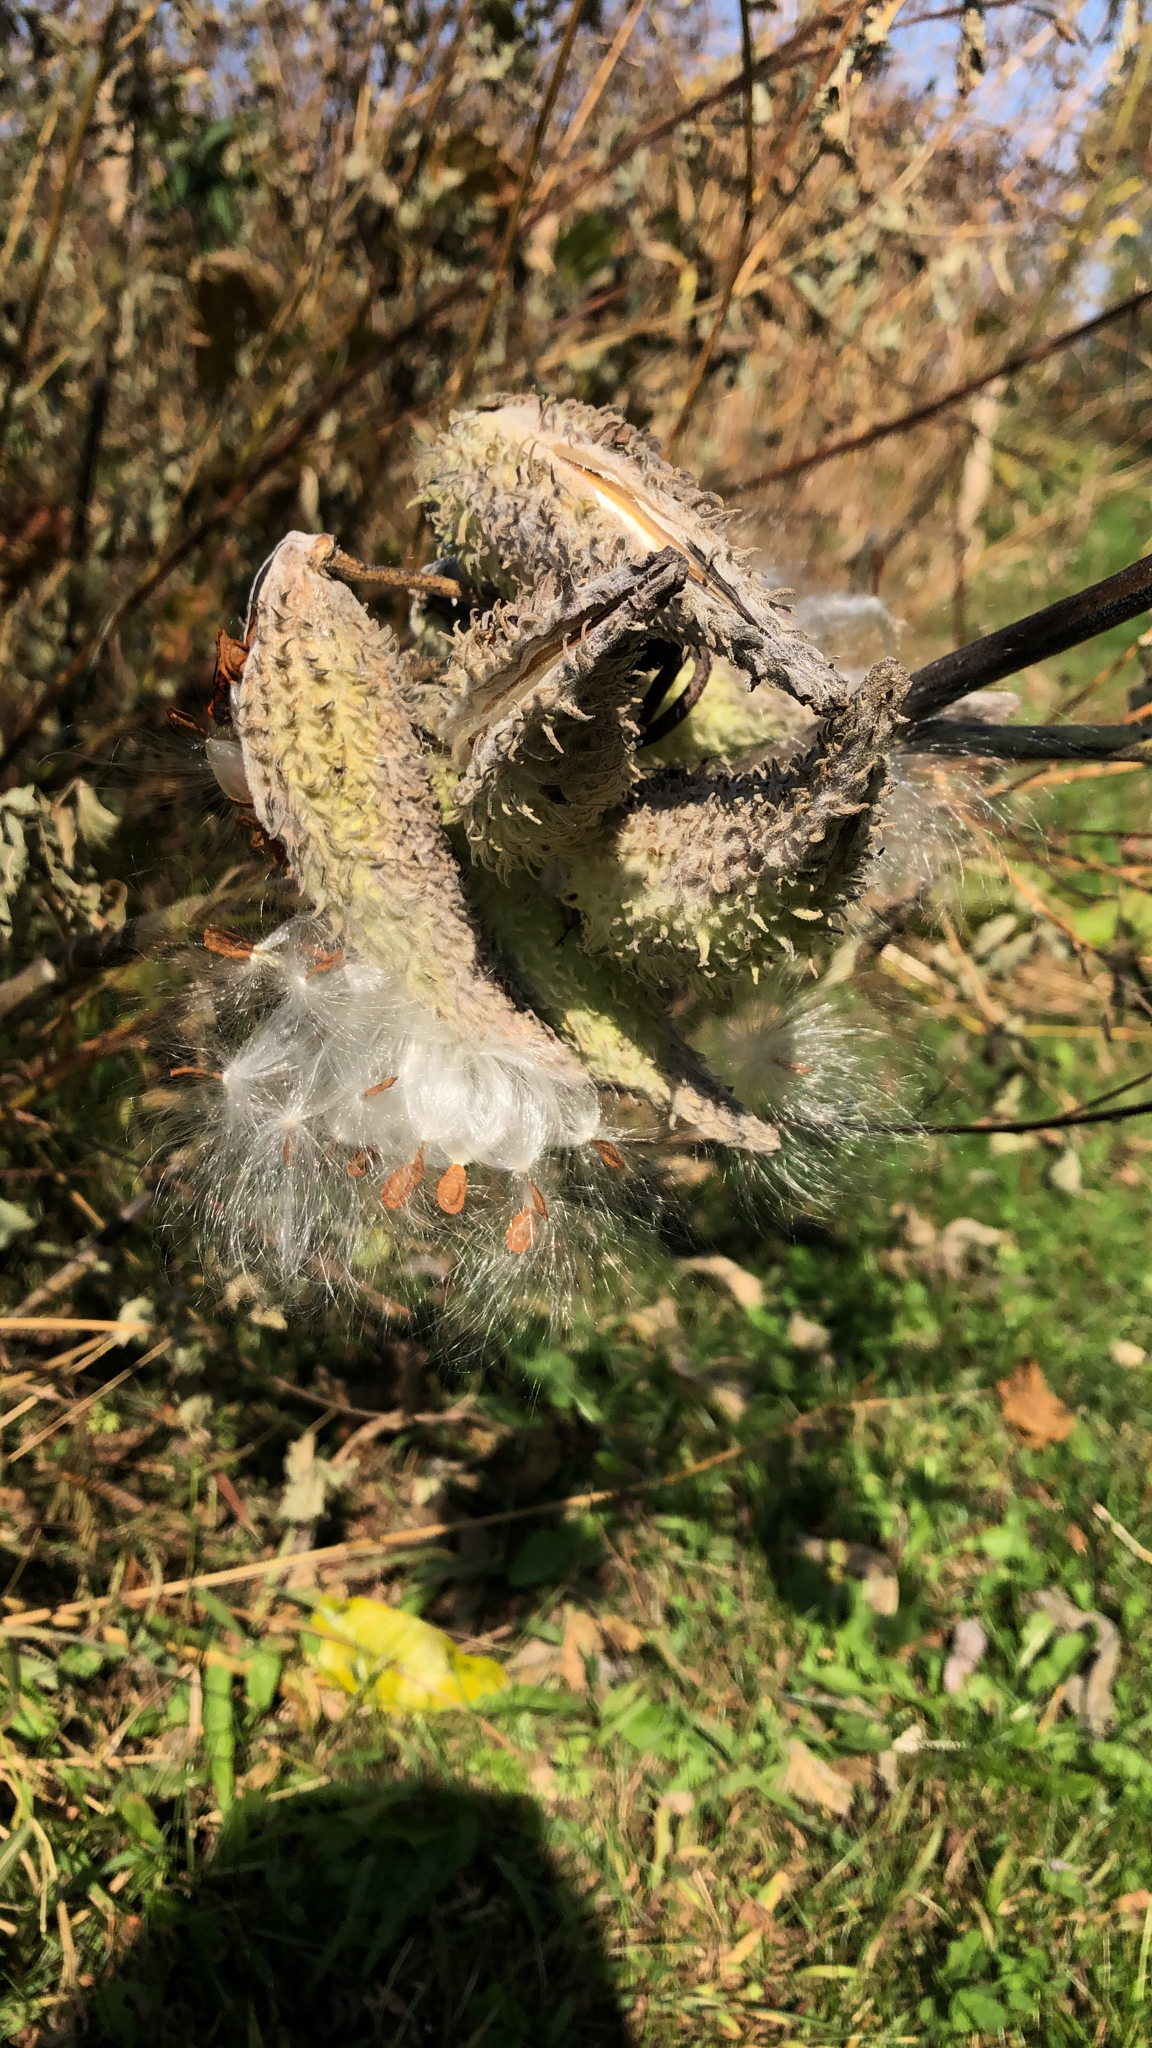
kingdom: Plantae
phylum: Tracheophyta
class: Magnoliopsida
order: Gentianales
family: Apocynaceae
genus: Asclepias
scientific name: Asclepias syriaca
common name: Common milkweed
